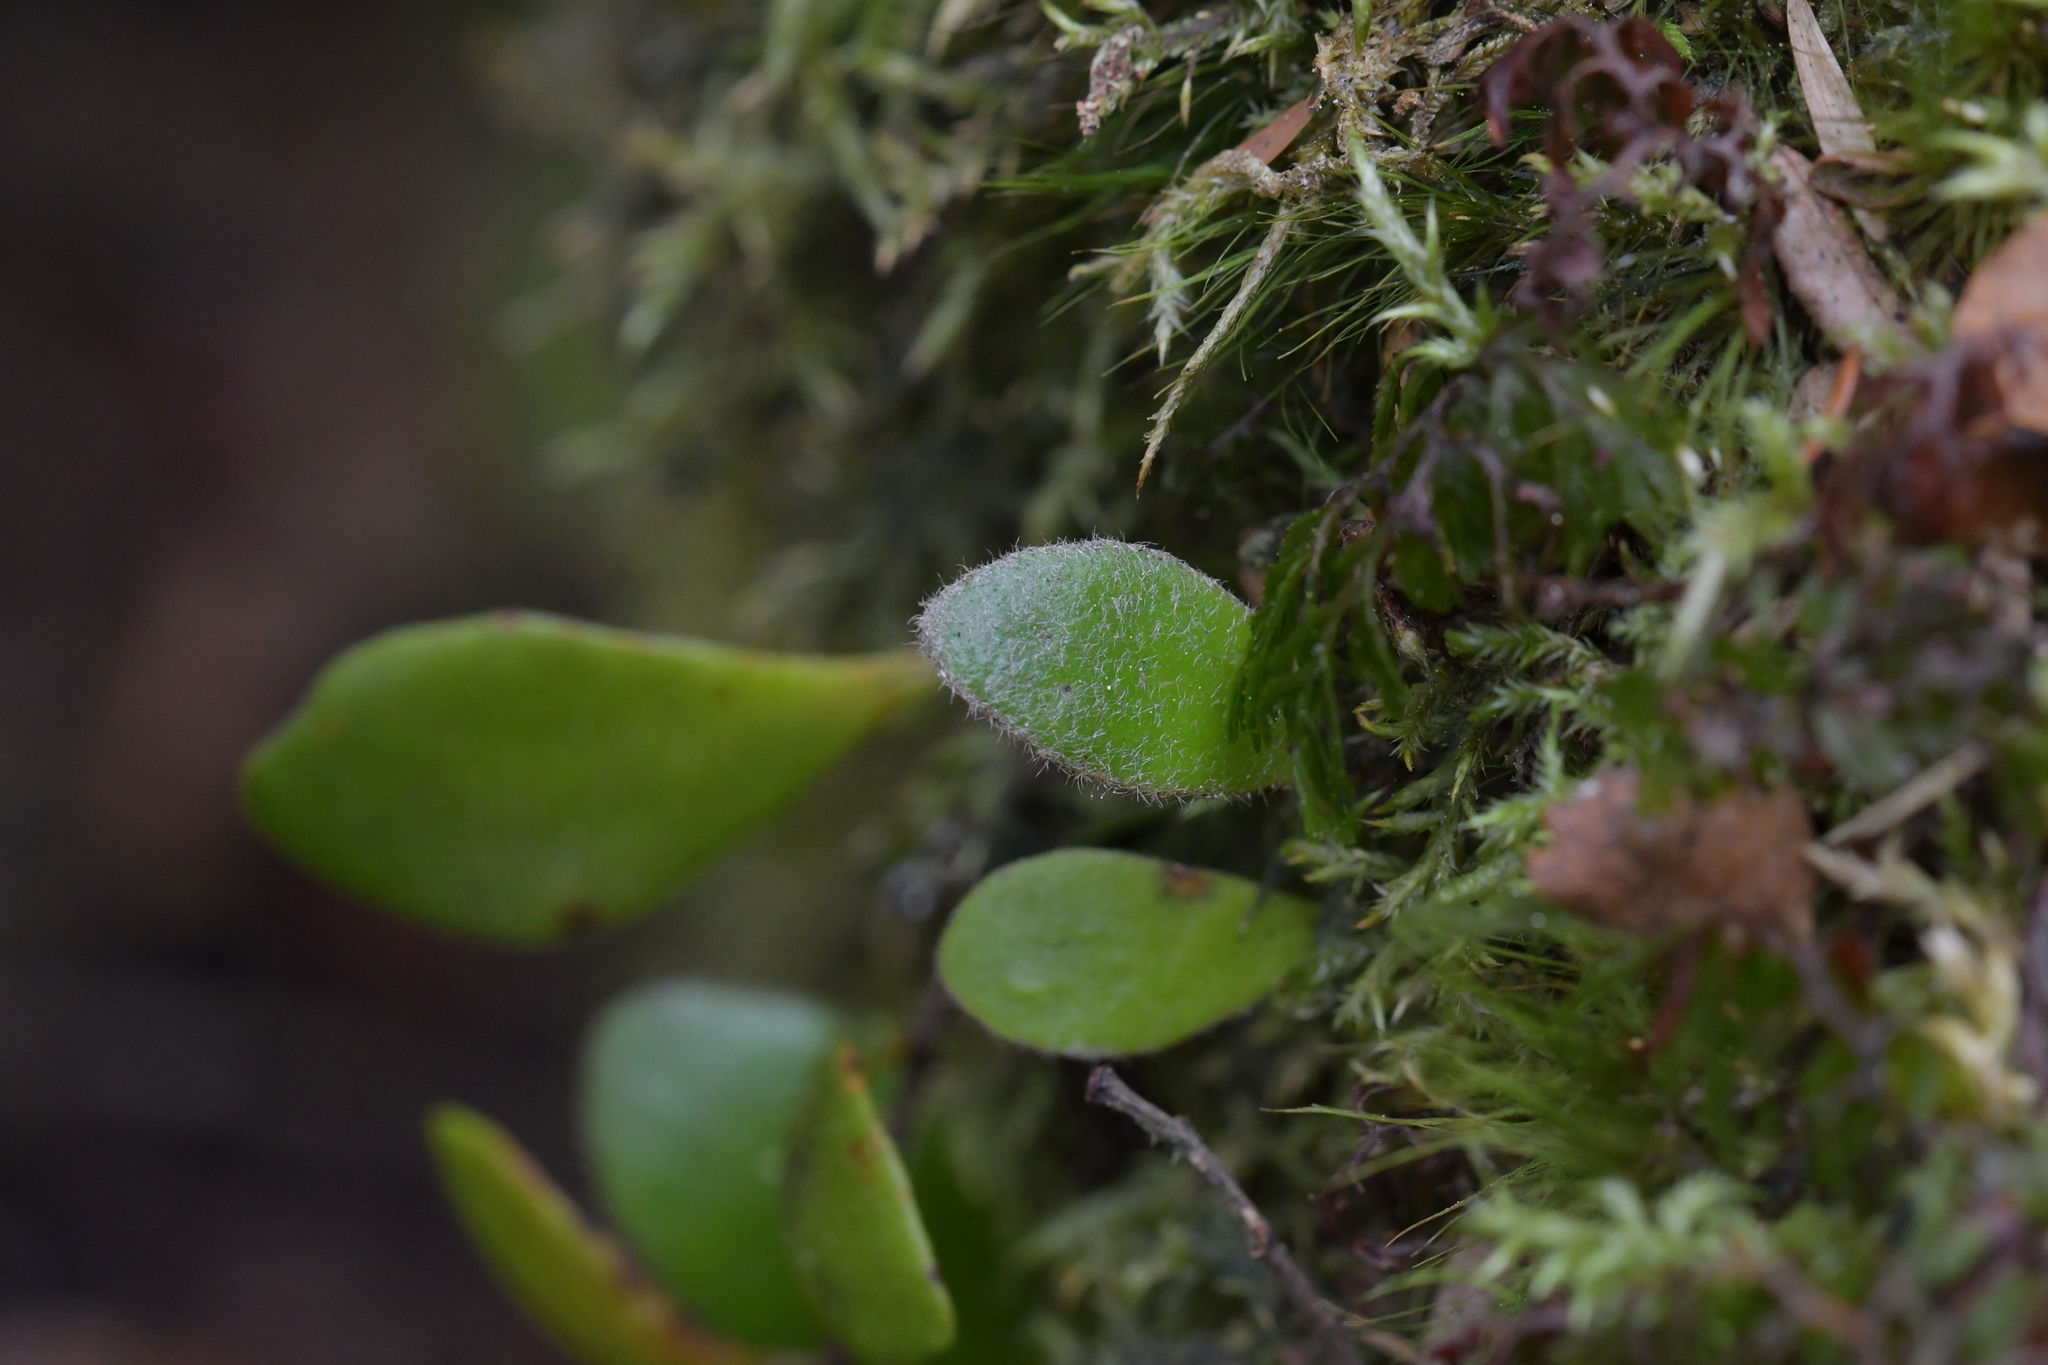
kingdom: Plantae
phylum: Tracheophyta
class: Polypodiopsida
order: Polypodiales
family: Polypodiaceae
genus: Pyrrosia
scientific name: Pyrrosia eleagnifolia
